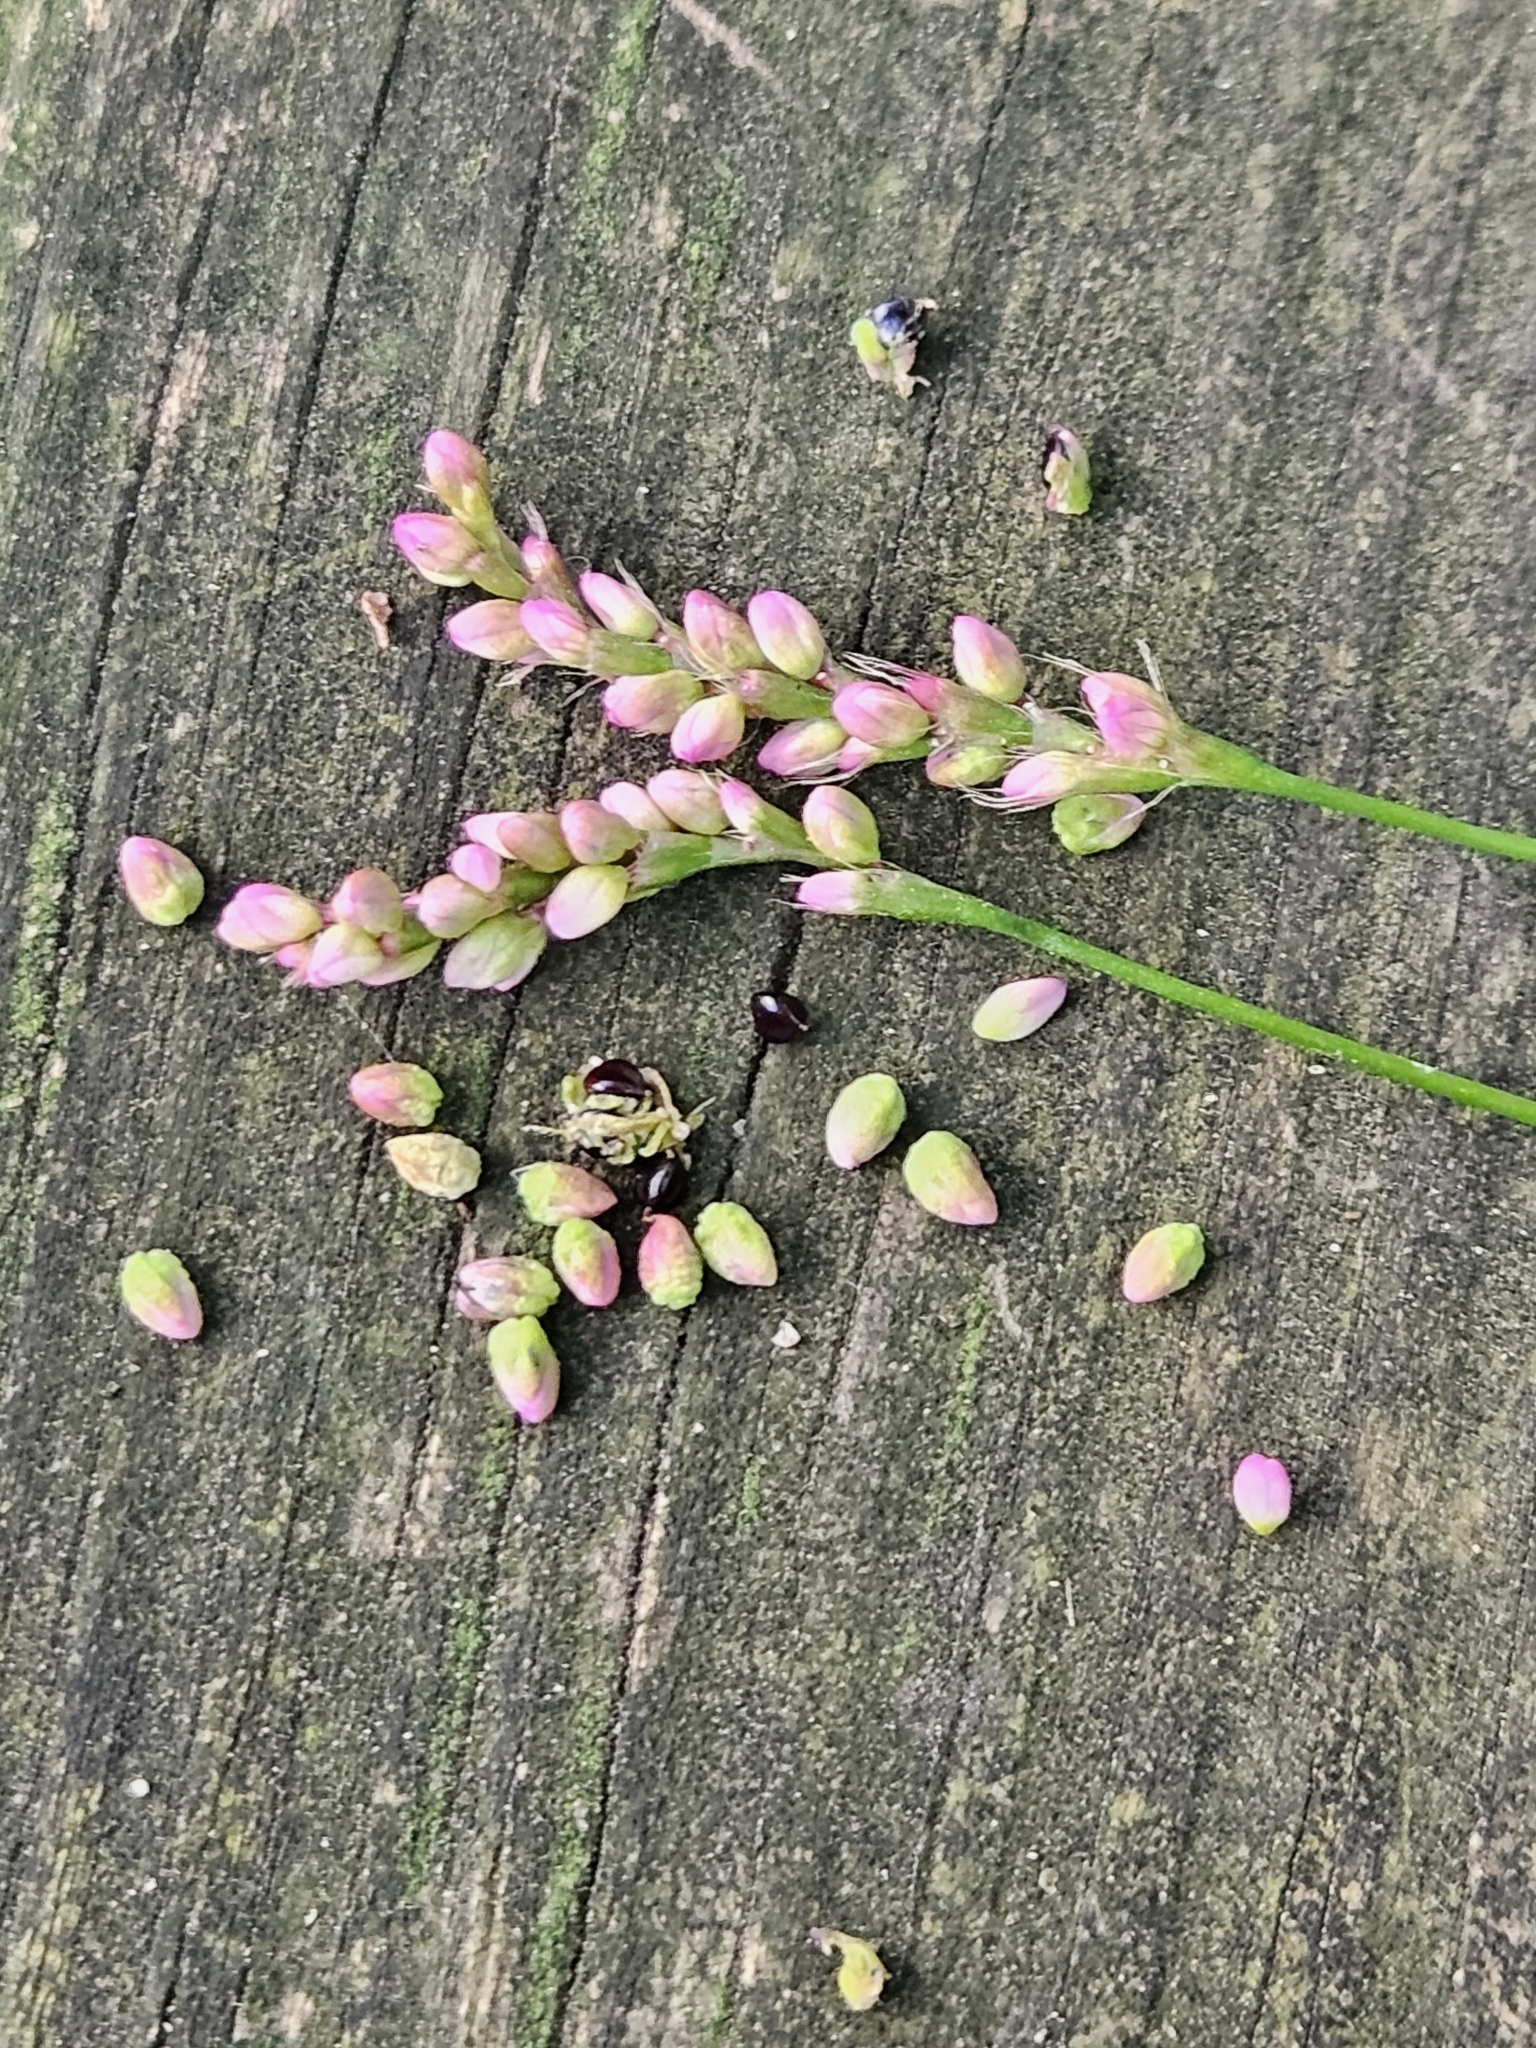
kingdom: Plantae
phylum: Tracheophyta
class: Magnoliopsida
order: Caryophyllales
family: Polygonaceae
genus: Persicaria
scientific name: Persicaria longiseta
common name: Bristly lady's-thumb
